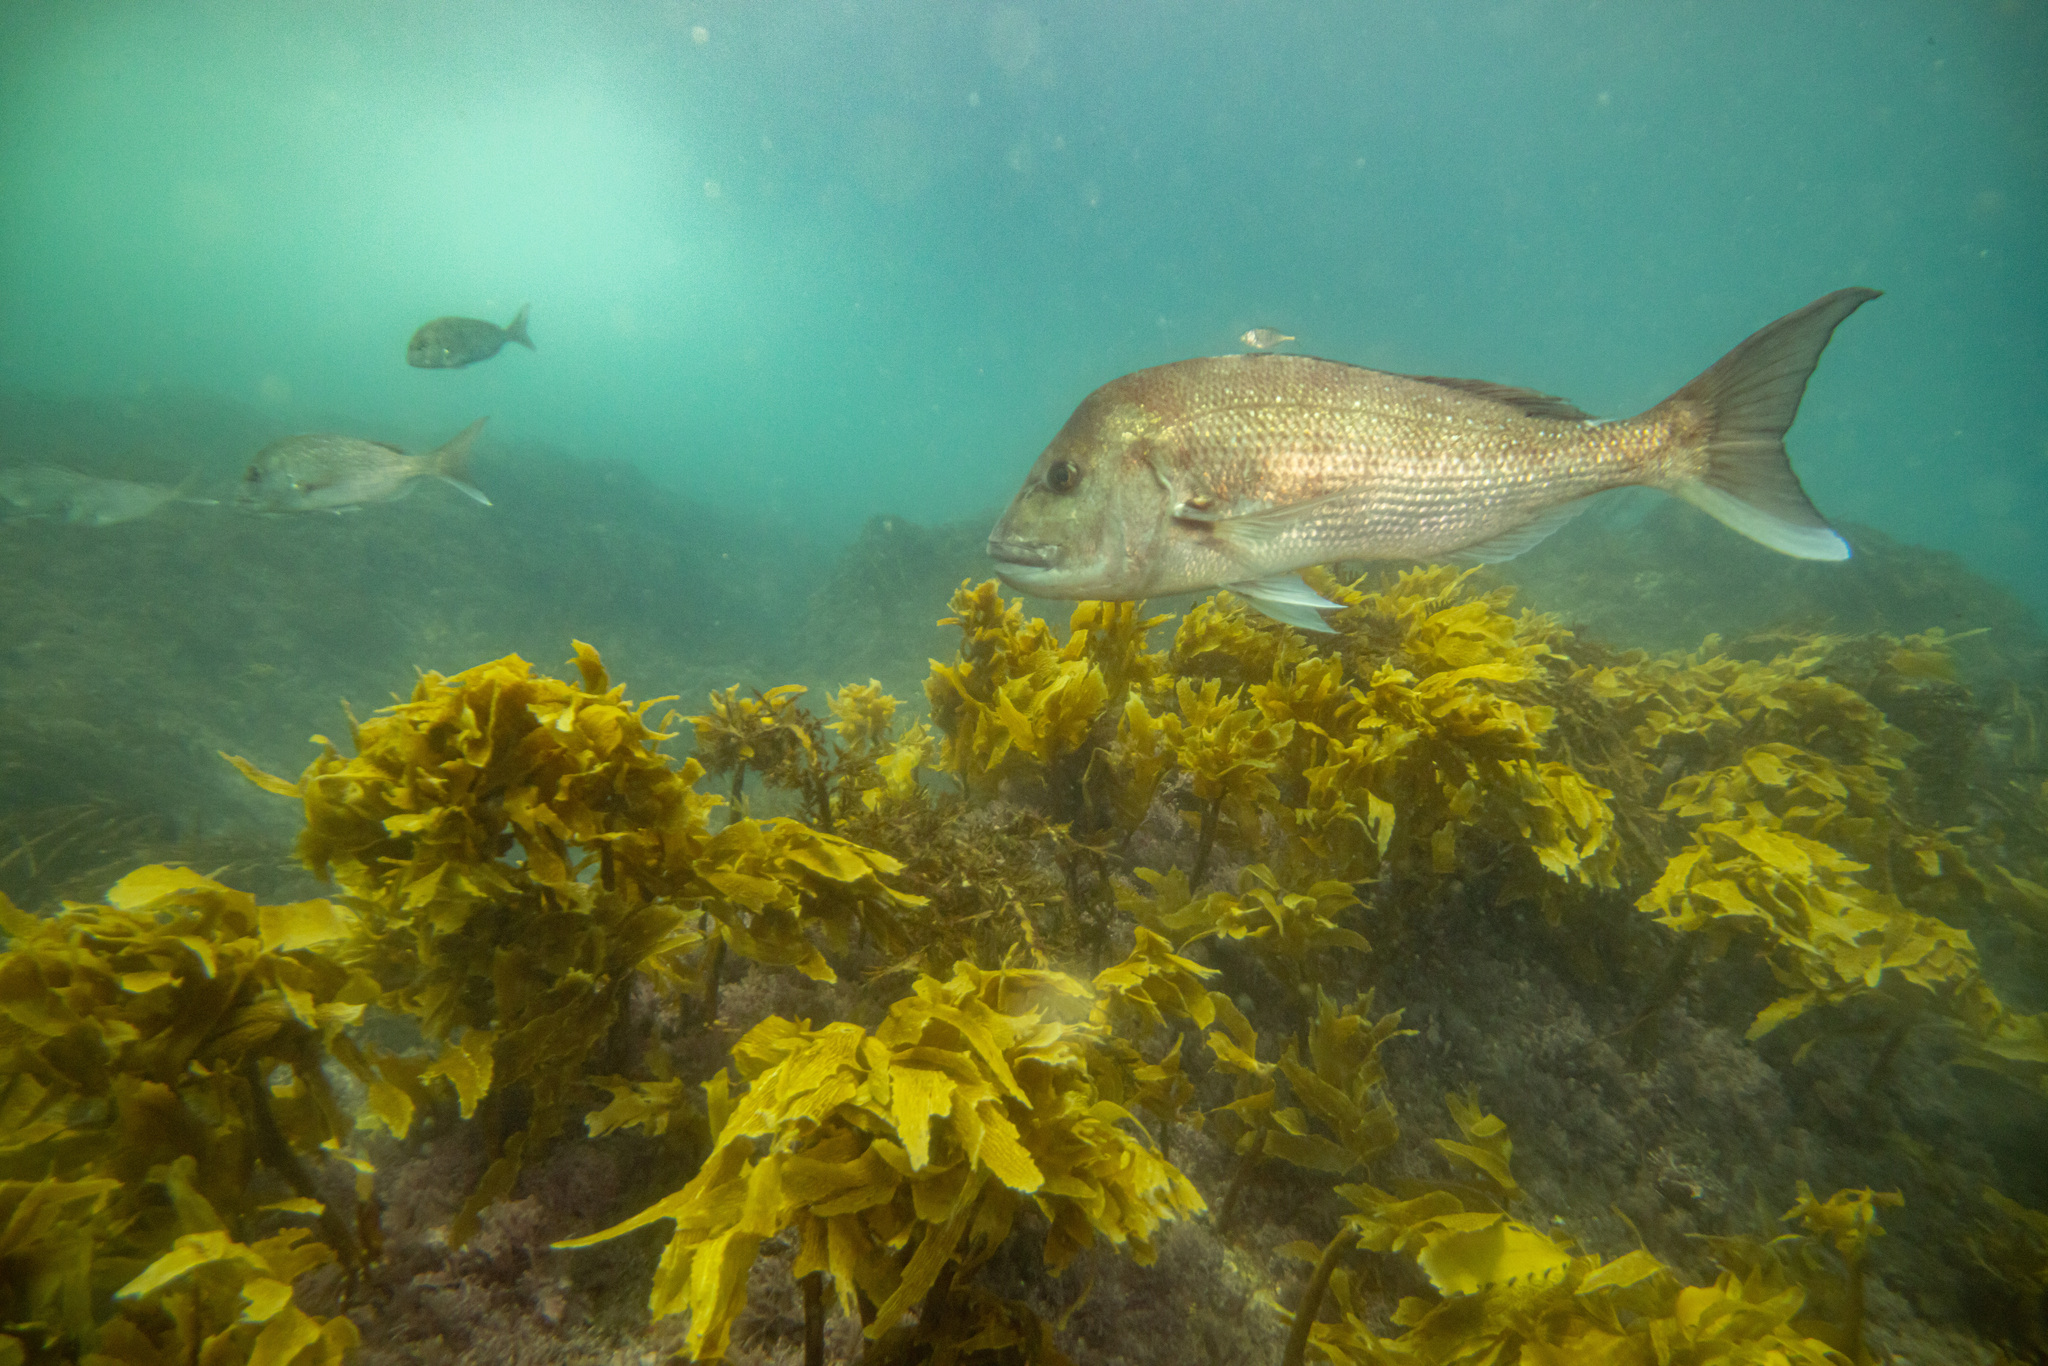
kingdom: Animalia
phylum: Chordata
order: Perciformes
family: Sparidae
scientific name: Sparidae
